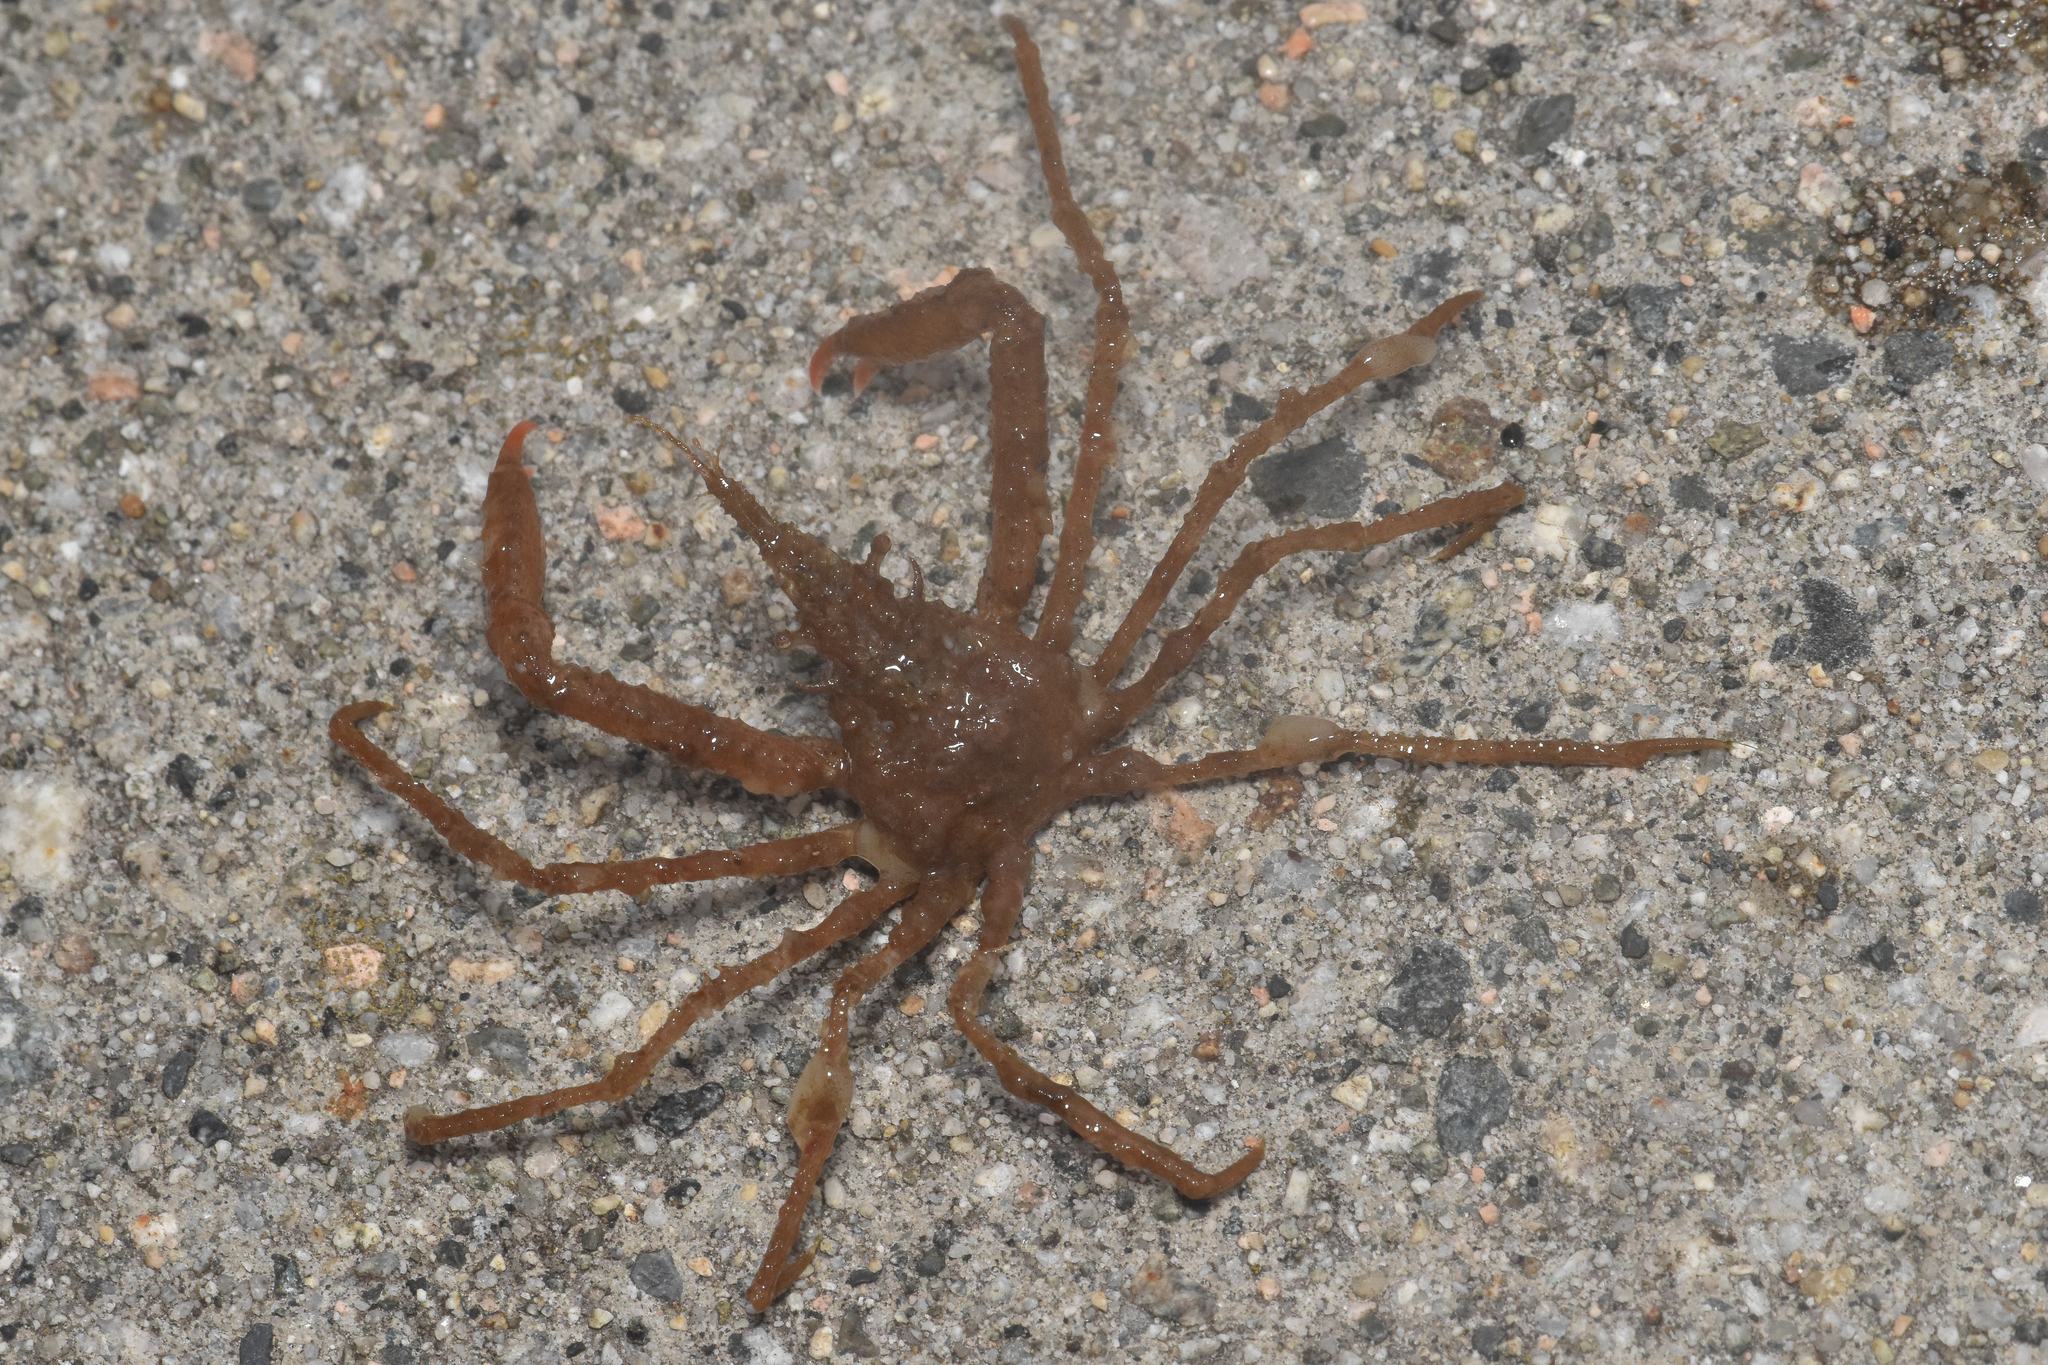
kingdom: Animalia
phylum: Arthropoda
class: Malacostraca
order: Decapoda
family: Oregoniidae
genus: Oregonia
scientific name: Oregonia gracilis
